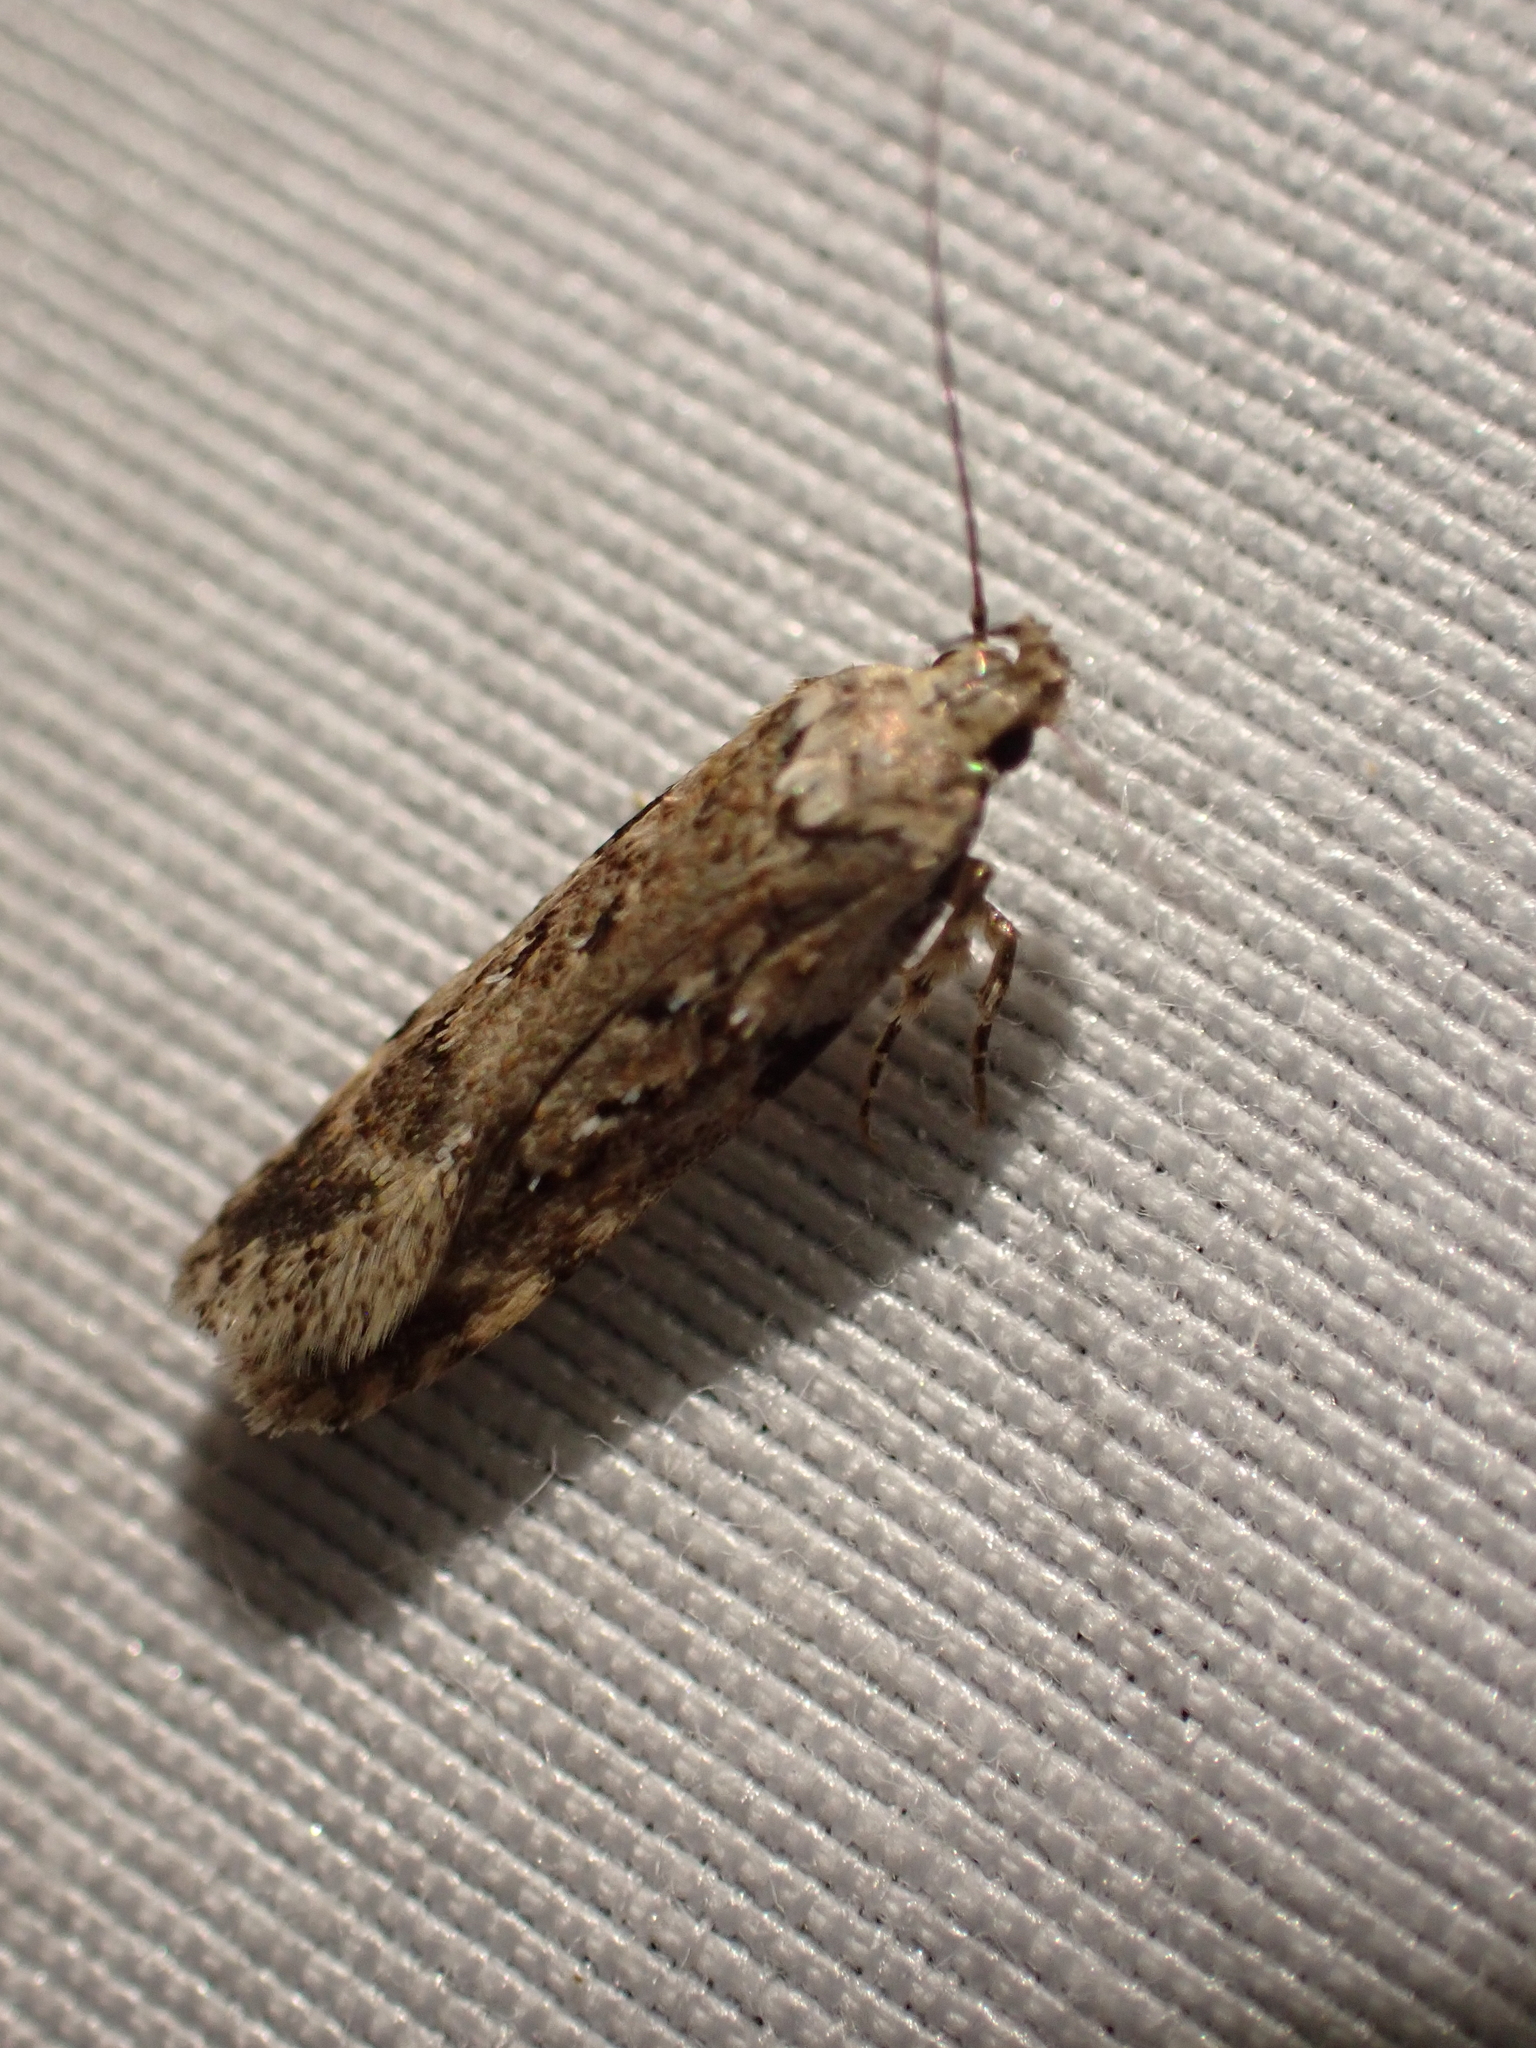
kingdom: Animalia
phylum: Arthropoda
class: Insecta
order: Lepidoptera
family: Gelechiidae
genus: Chionodes
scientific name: Chionodes petalumensis
